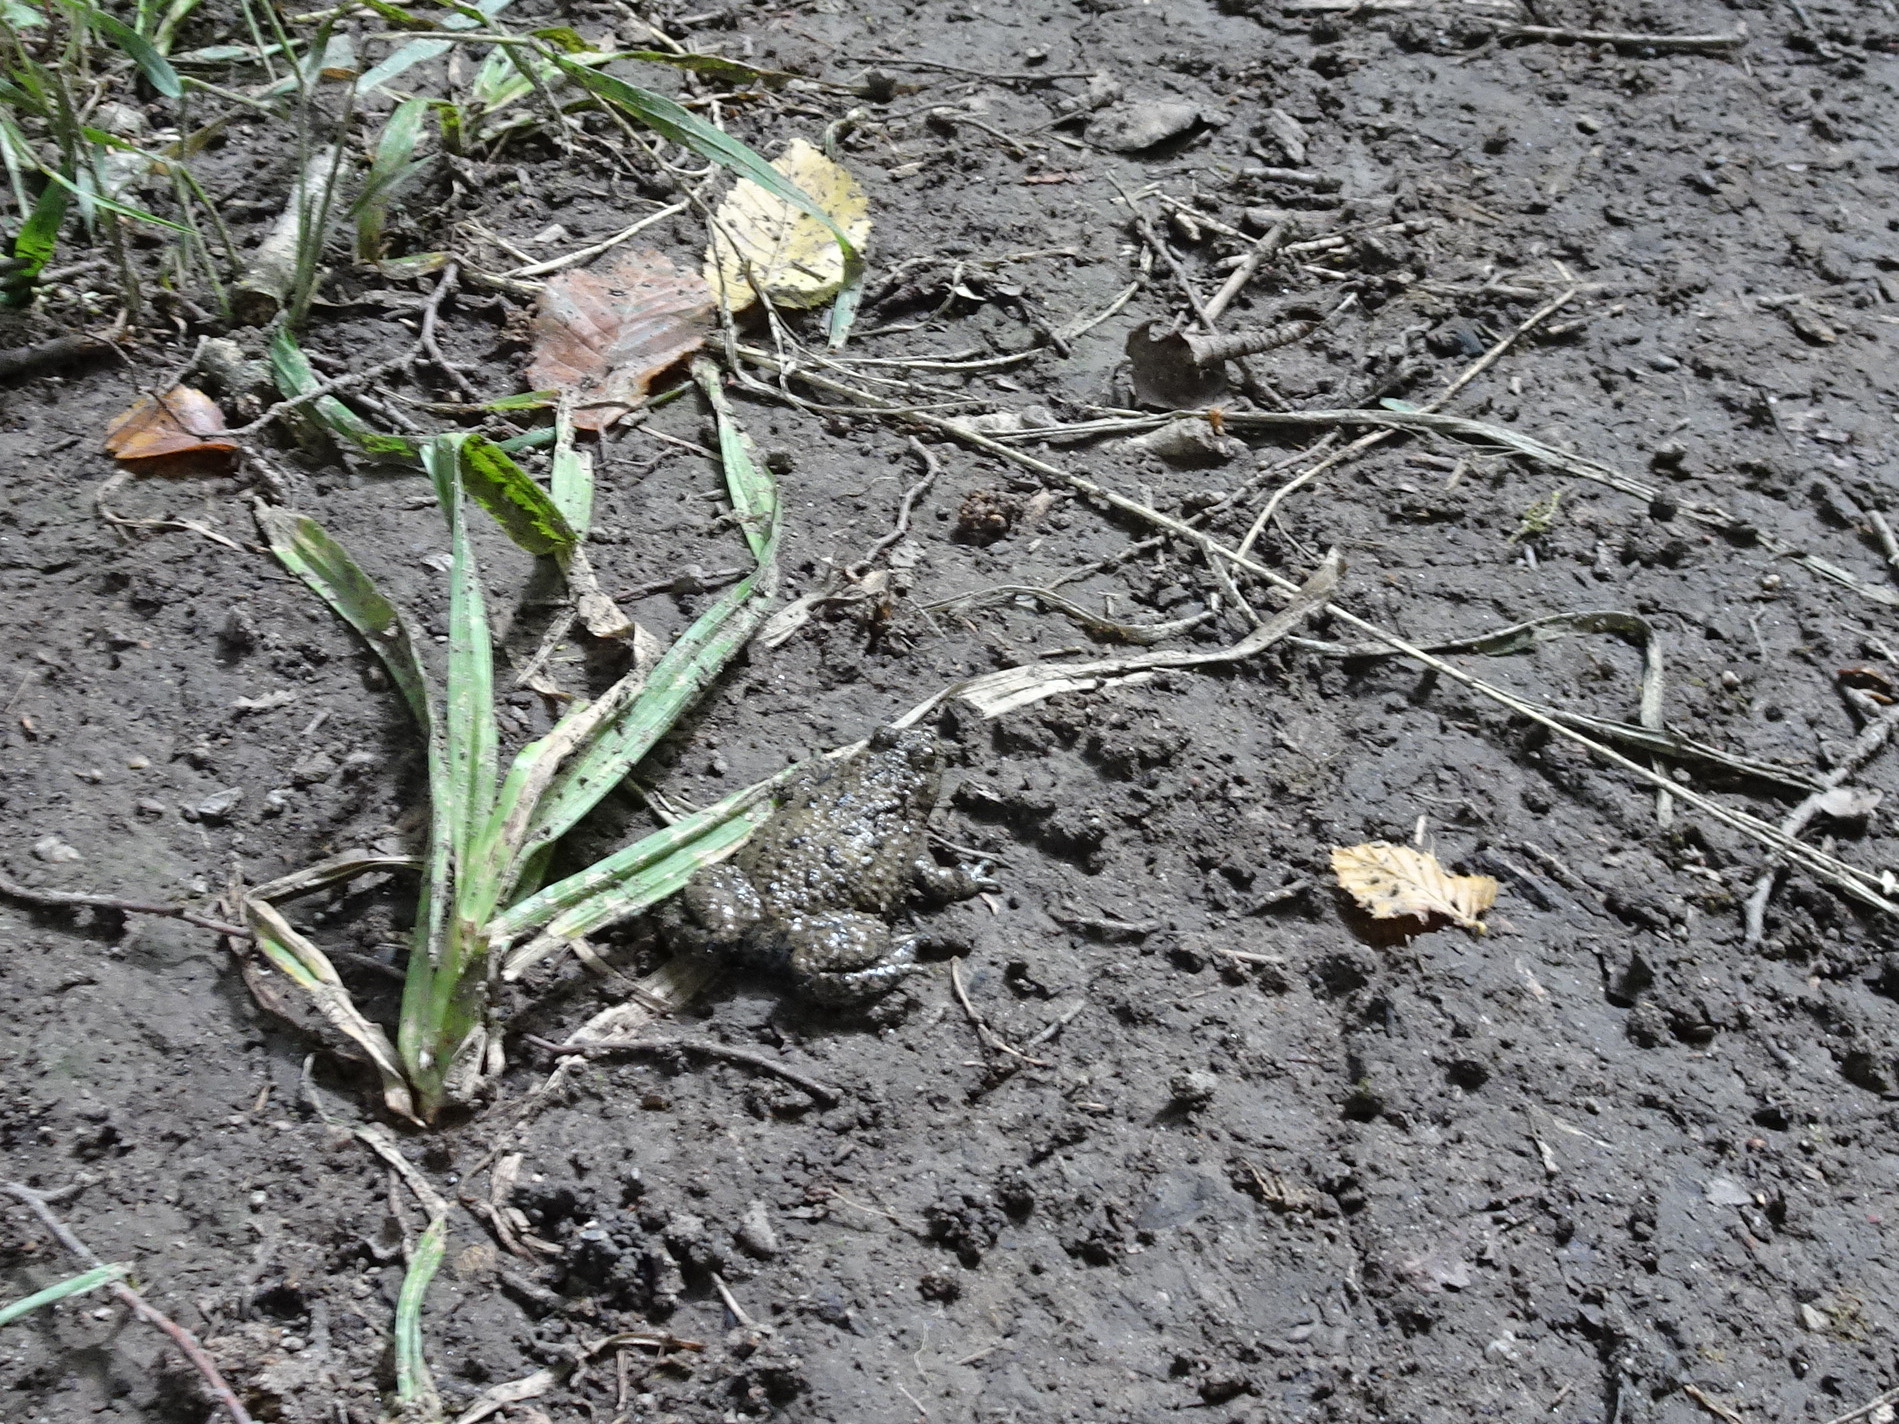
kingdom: Animalia
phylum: Chordata
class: Amphibia
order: Anura
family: Bombinatoridae
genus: Bombina
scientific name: Bombina variegata
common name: Yellow-bellied toad
